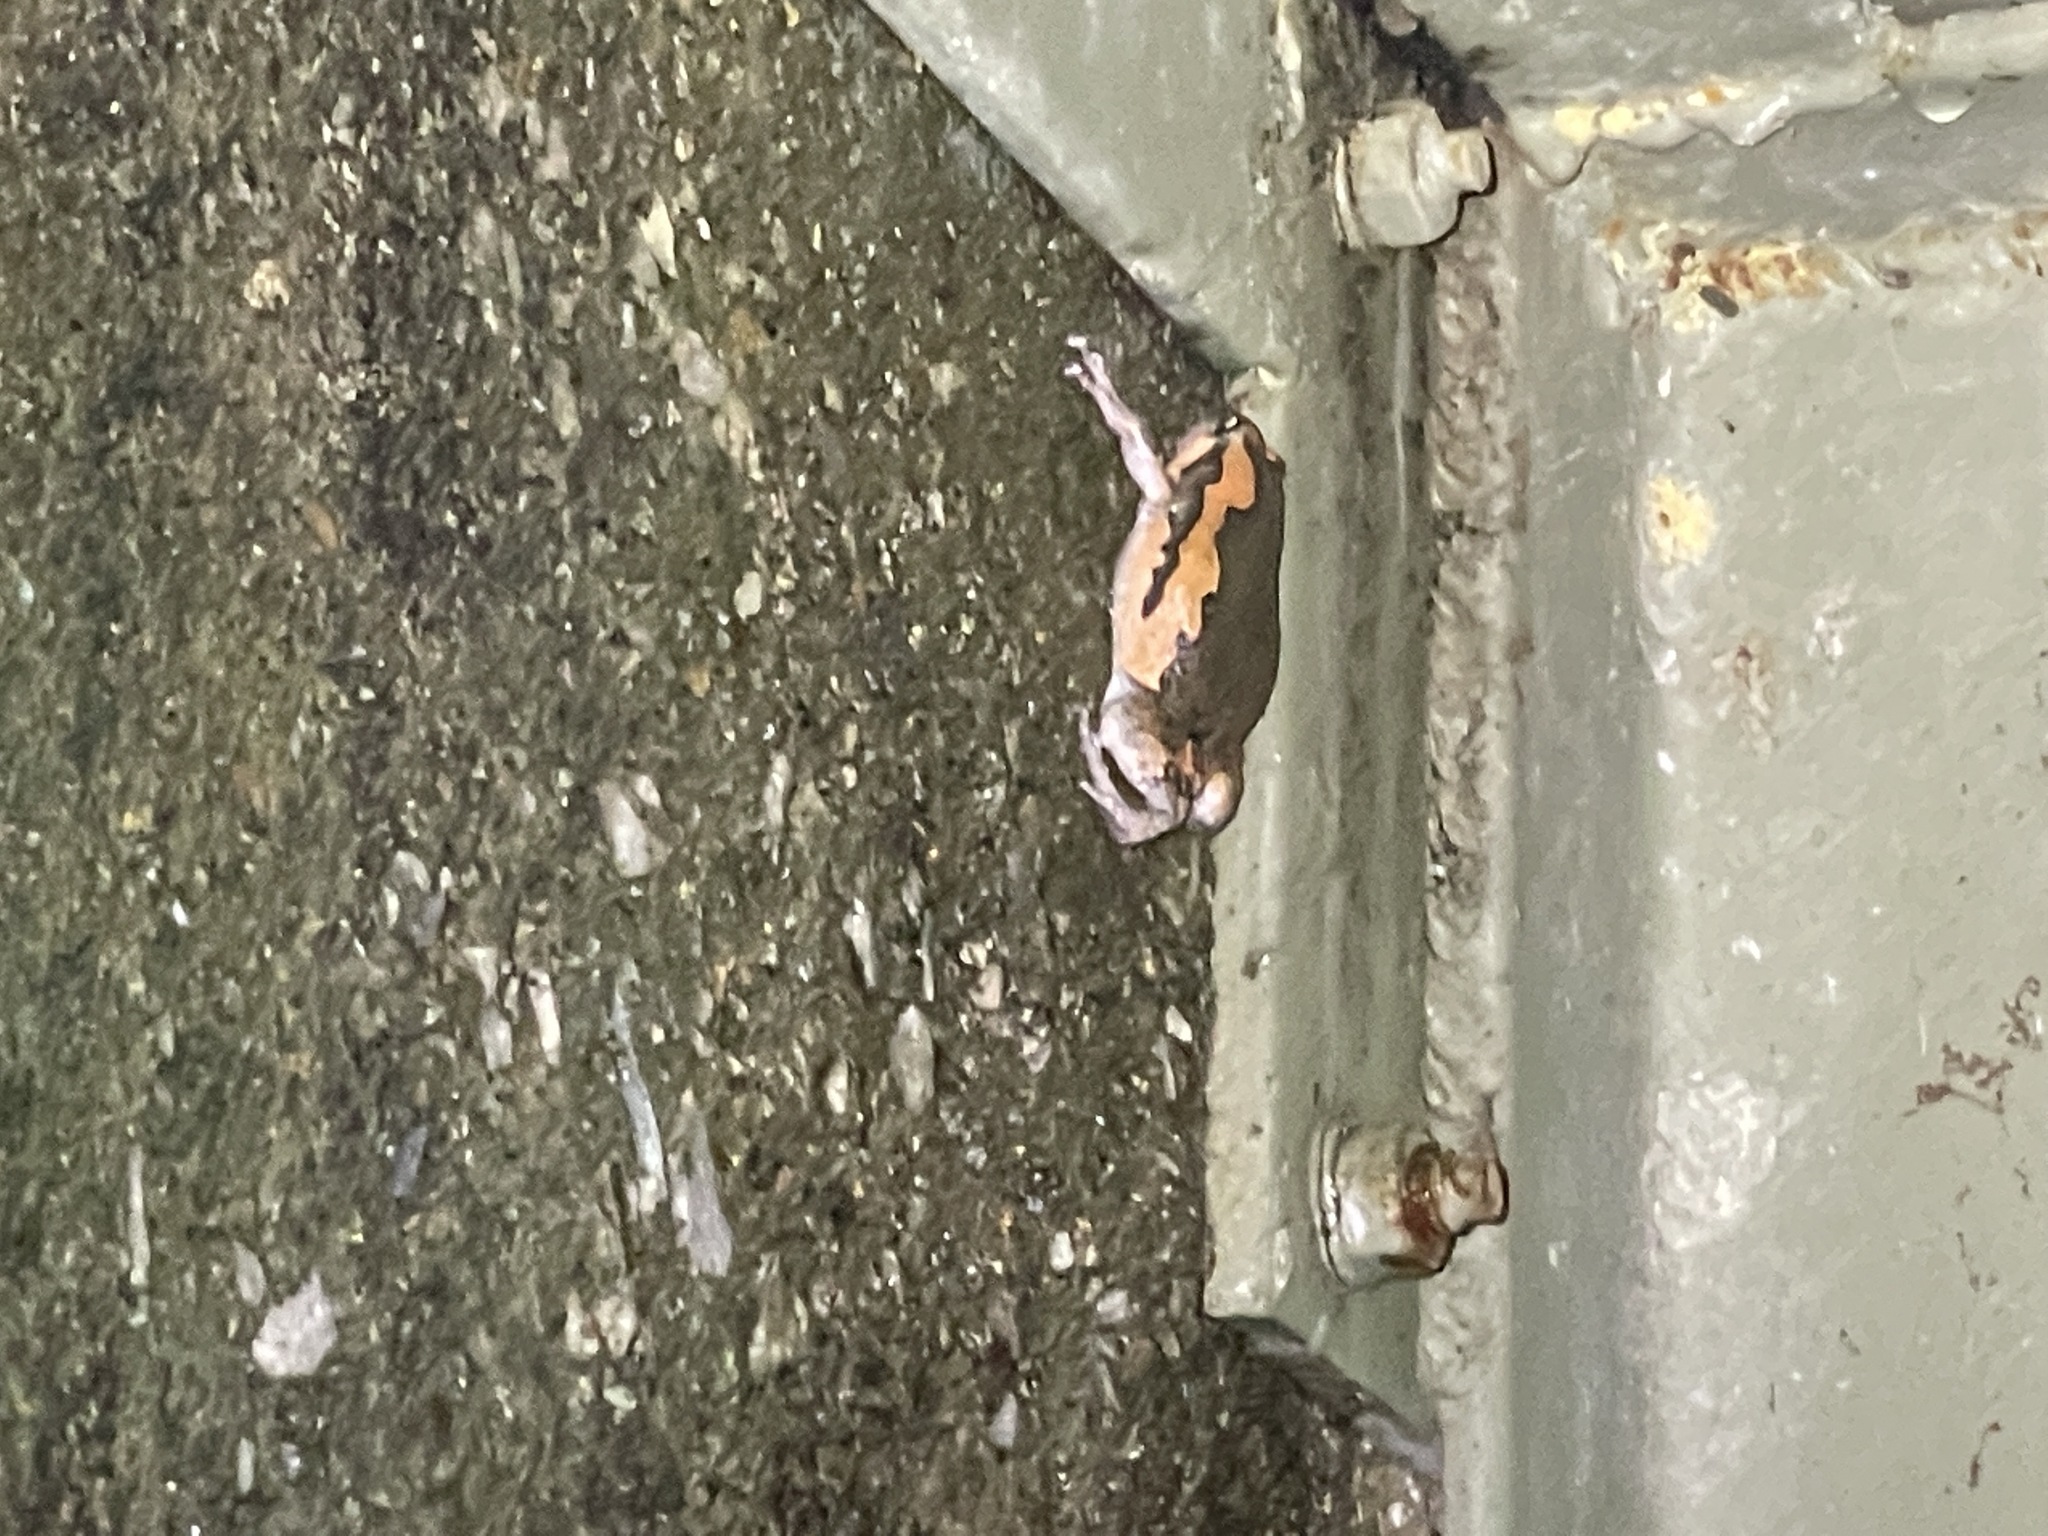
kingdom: Animalia
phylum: Chordata
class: Amphibia
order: Anura
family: Microhylidae
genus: Kaloula
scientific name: Kaloula pulchra
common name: Common,banded bullfrog
